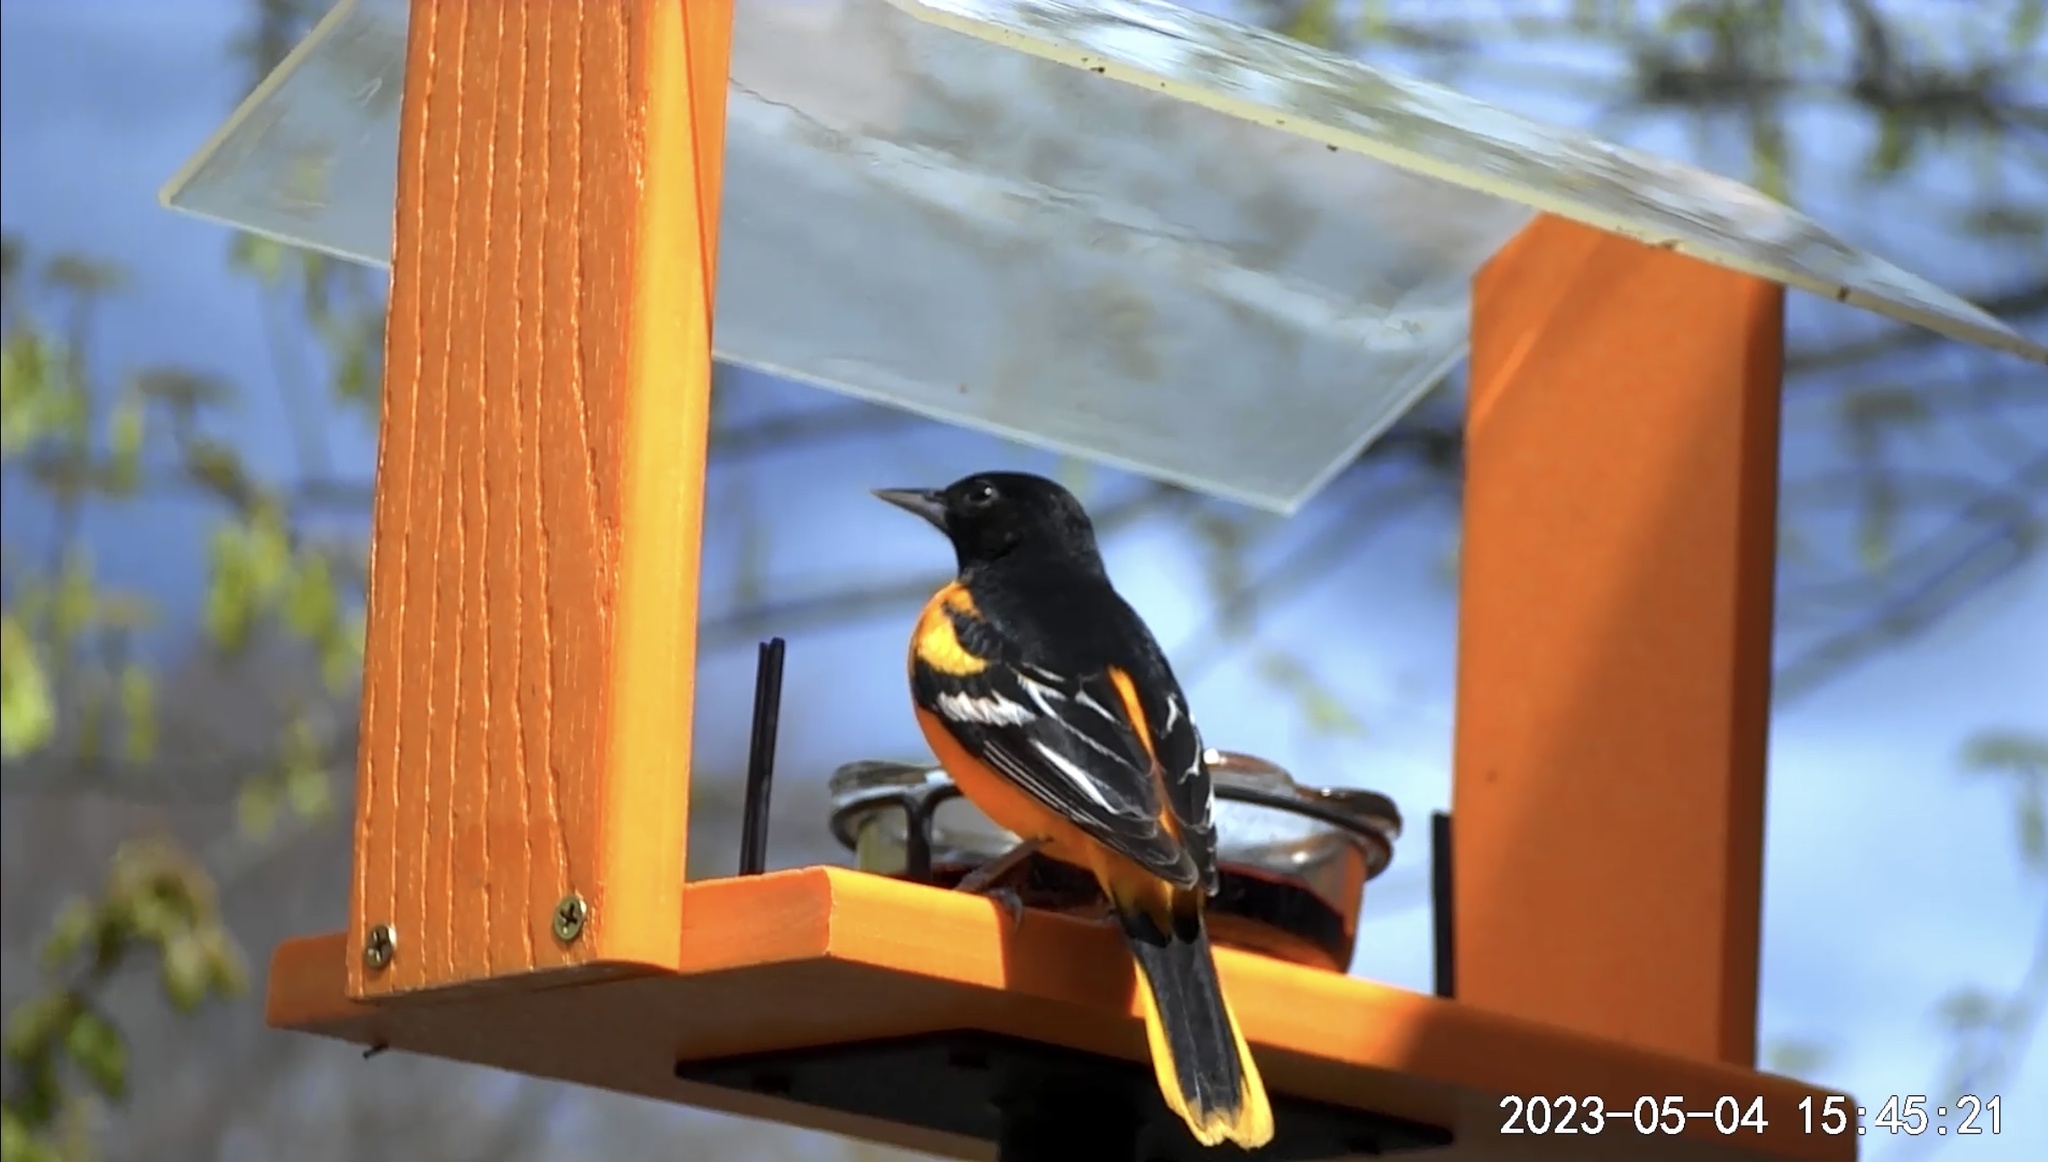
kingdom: Animalia
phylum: Chordata
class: Aves
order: Passeriformes
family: Icteridae
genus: Icterus
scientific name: Icterus galbula
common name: Baltimore oriole
